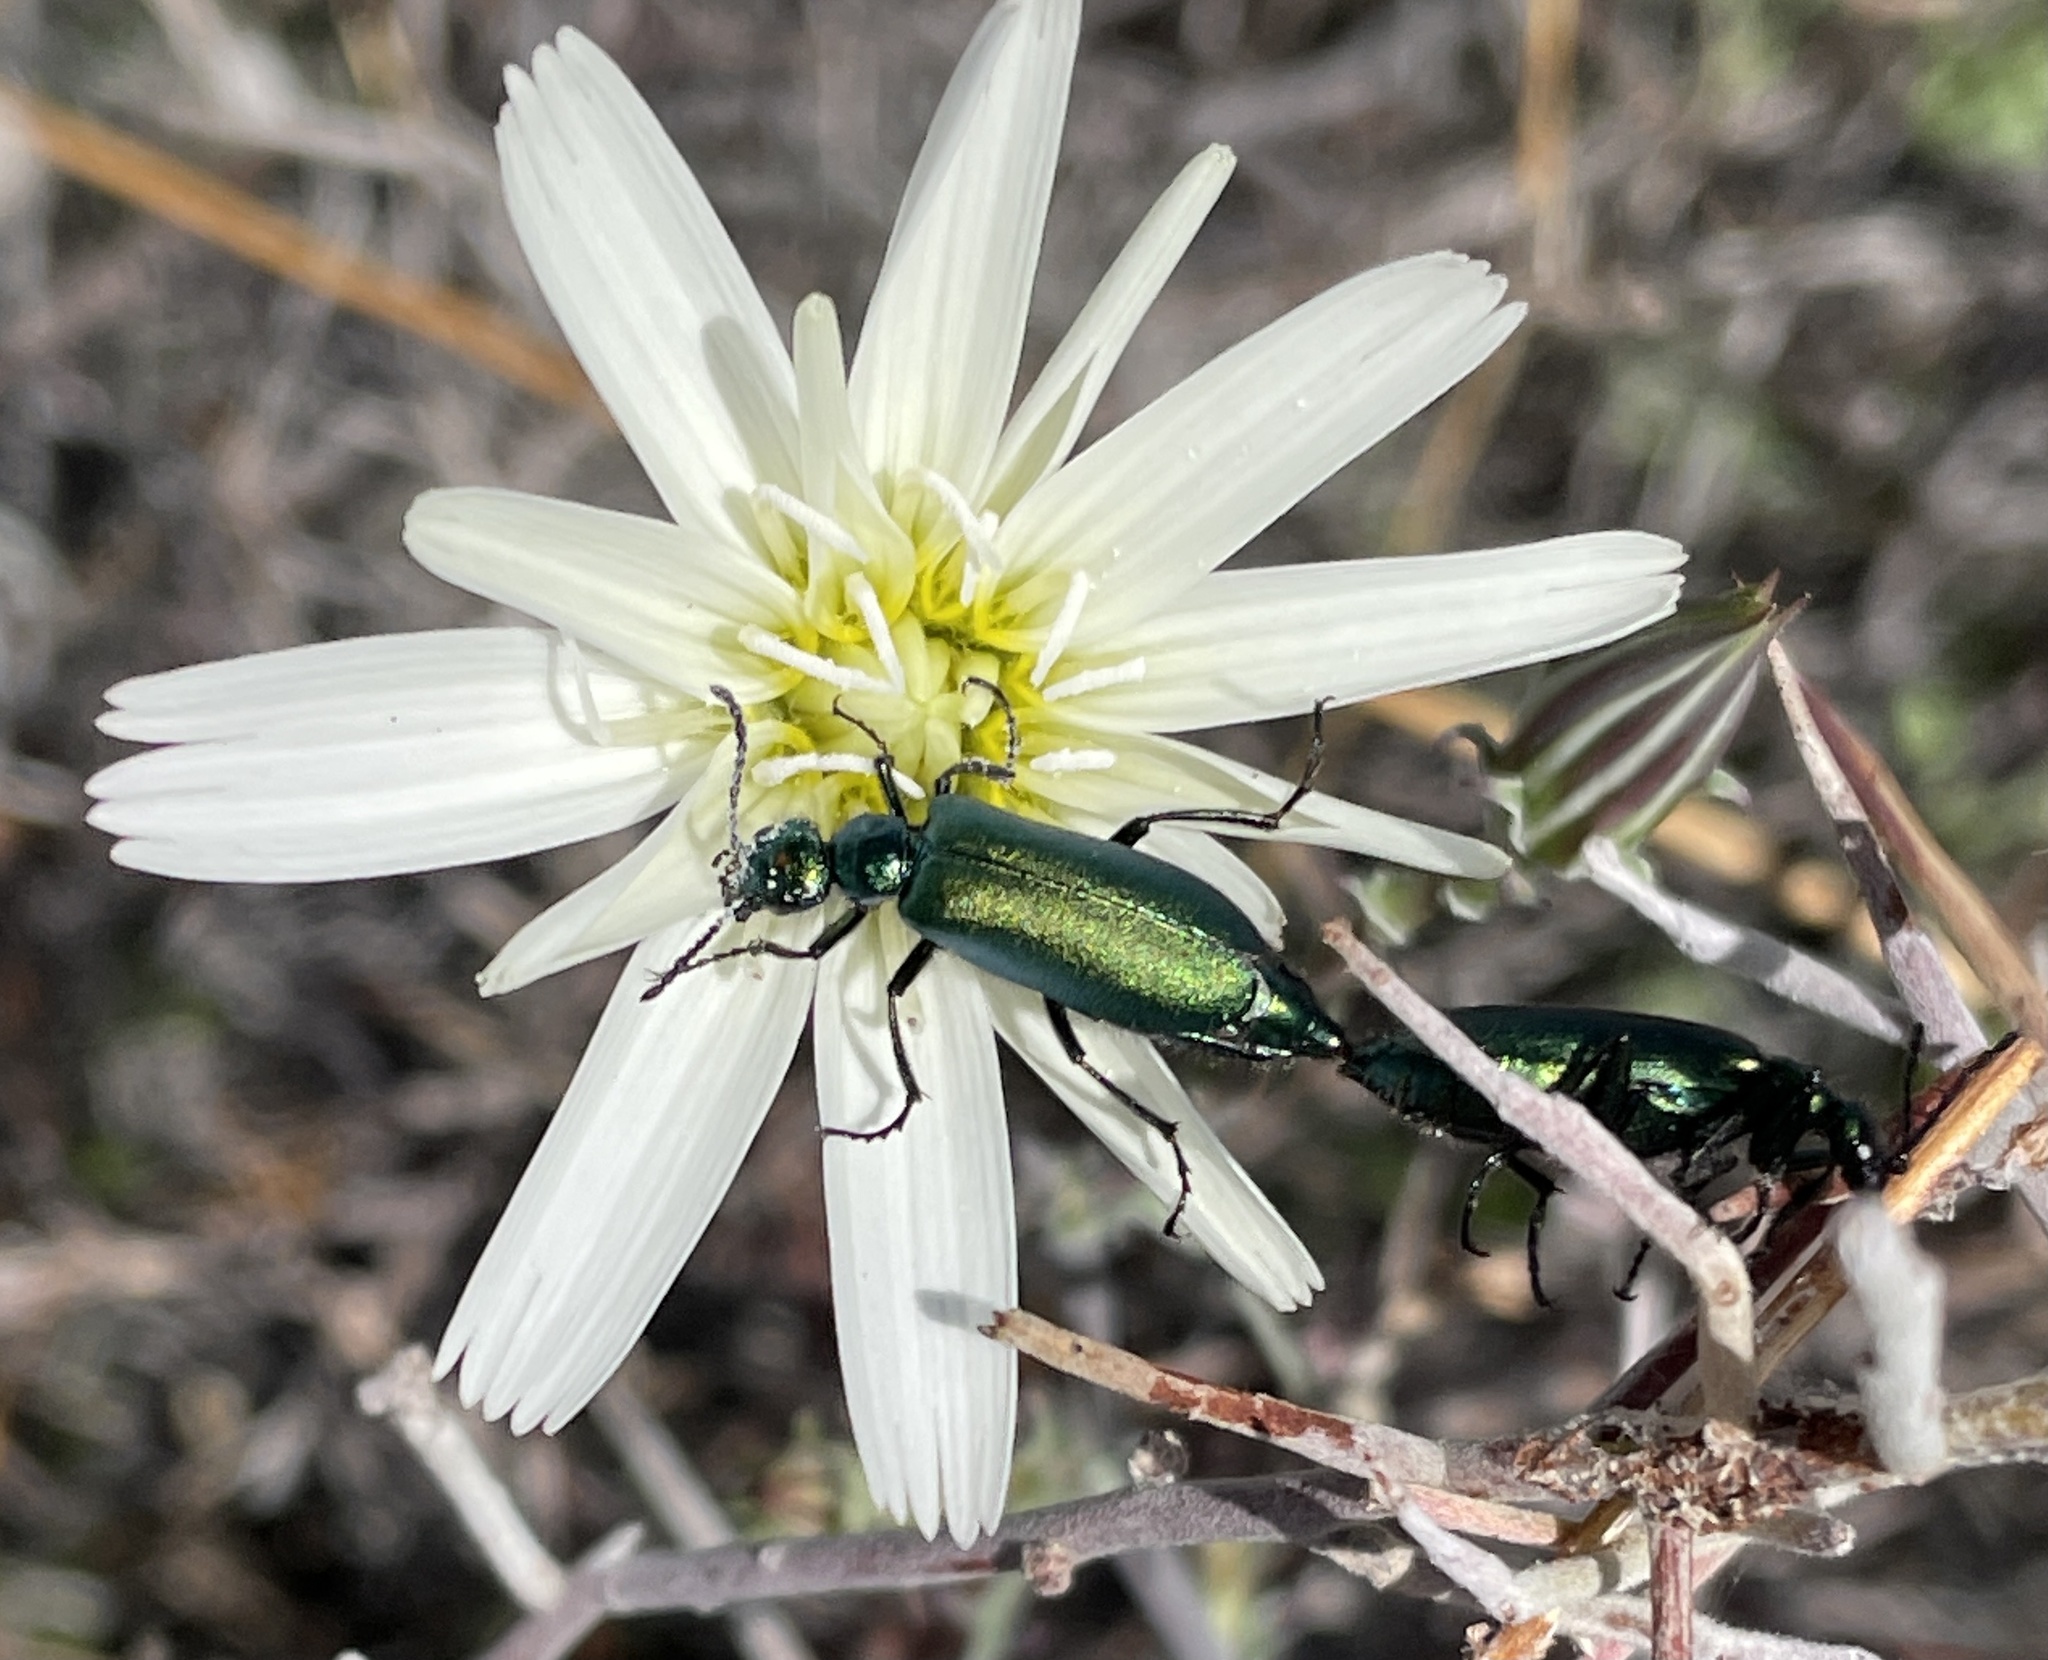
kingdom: Animalia
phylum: Arthropoda
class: Insecta
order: Coleoptera
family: Meloidae
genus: Lytta
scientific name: Lytta stygica
